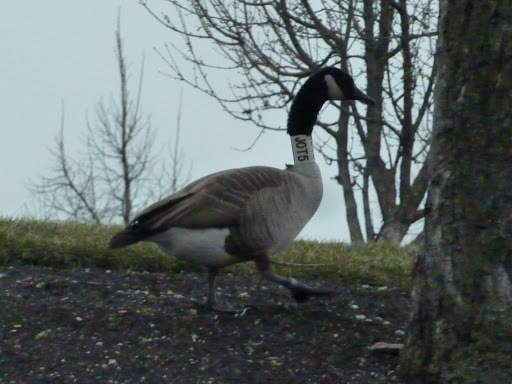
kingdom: Animalia
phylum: Chordata
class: Aves
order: Anseriformes
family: Anatidae
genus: Branta
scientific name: Branta canadensis
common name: Canada goose
